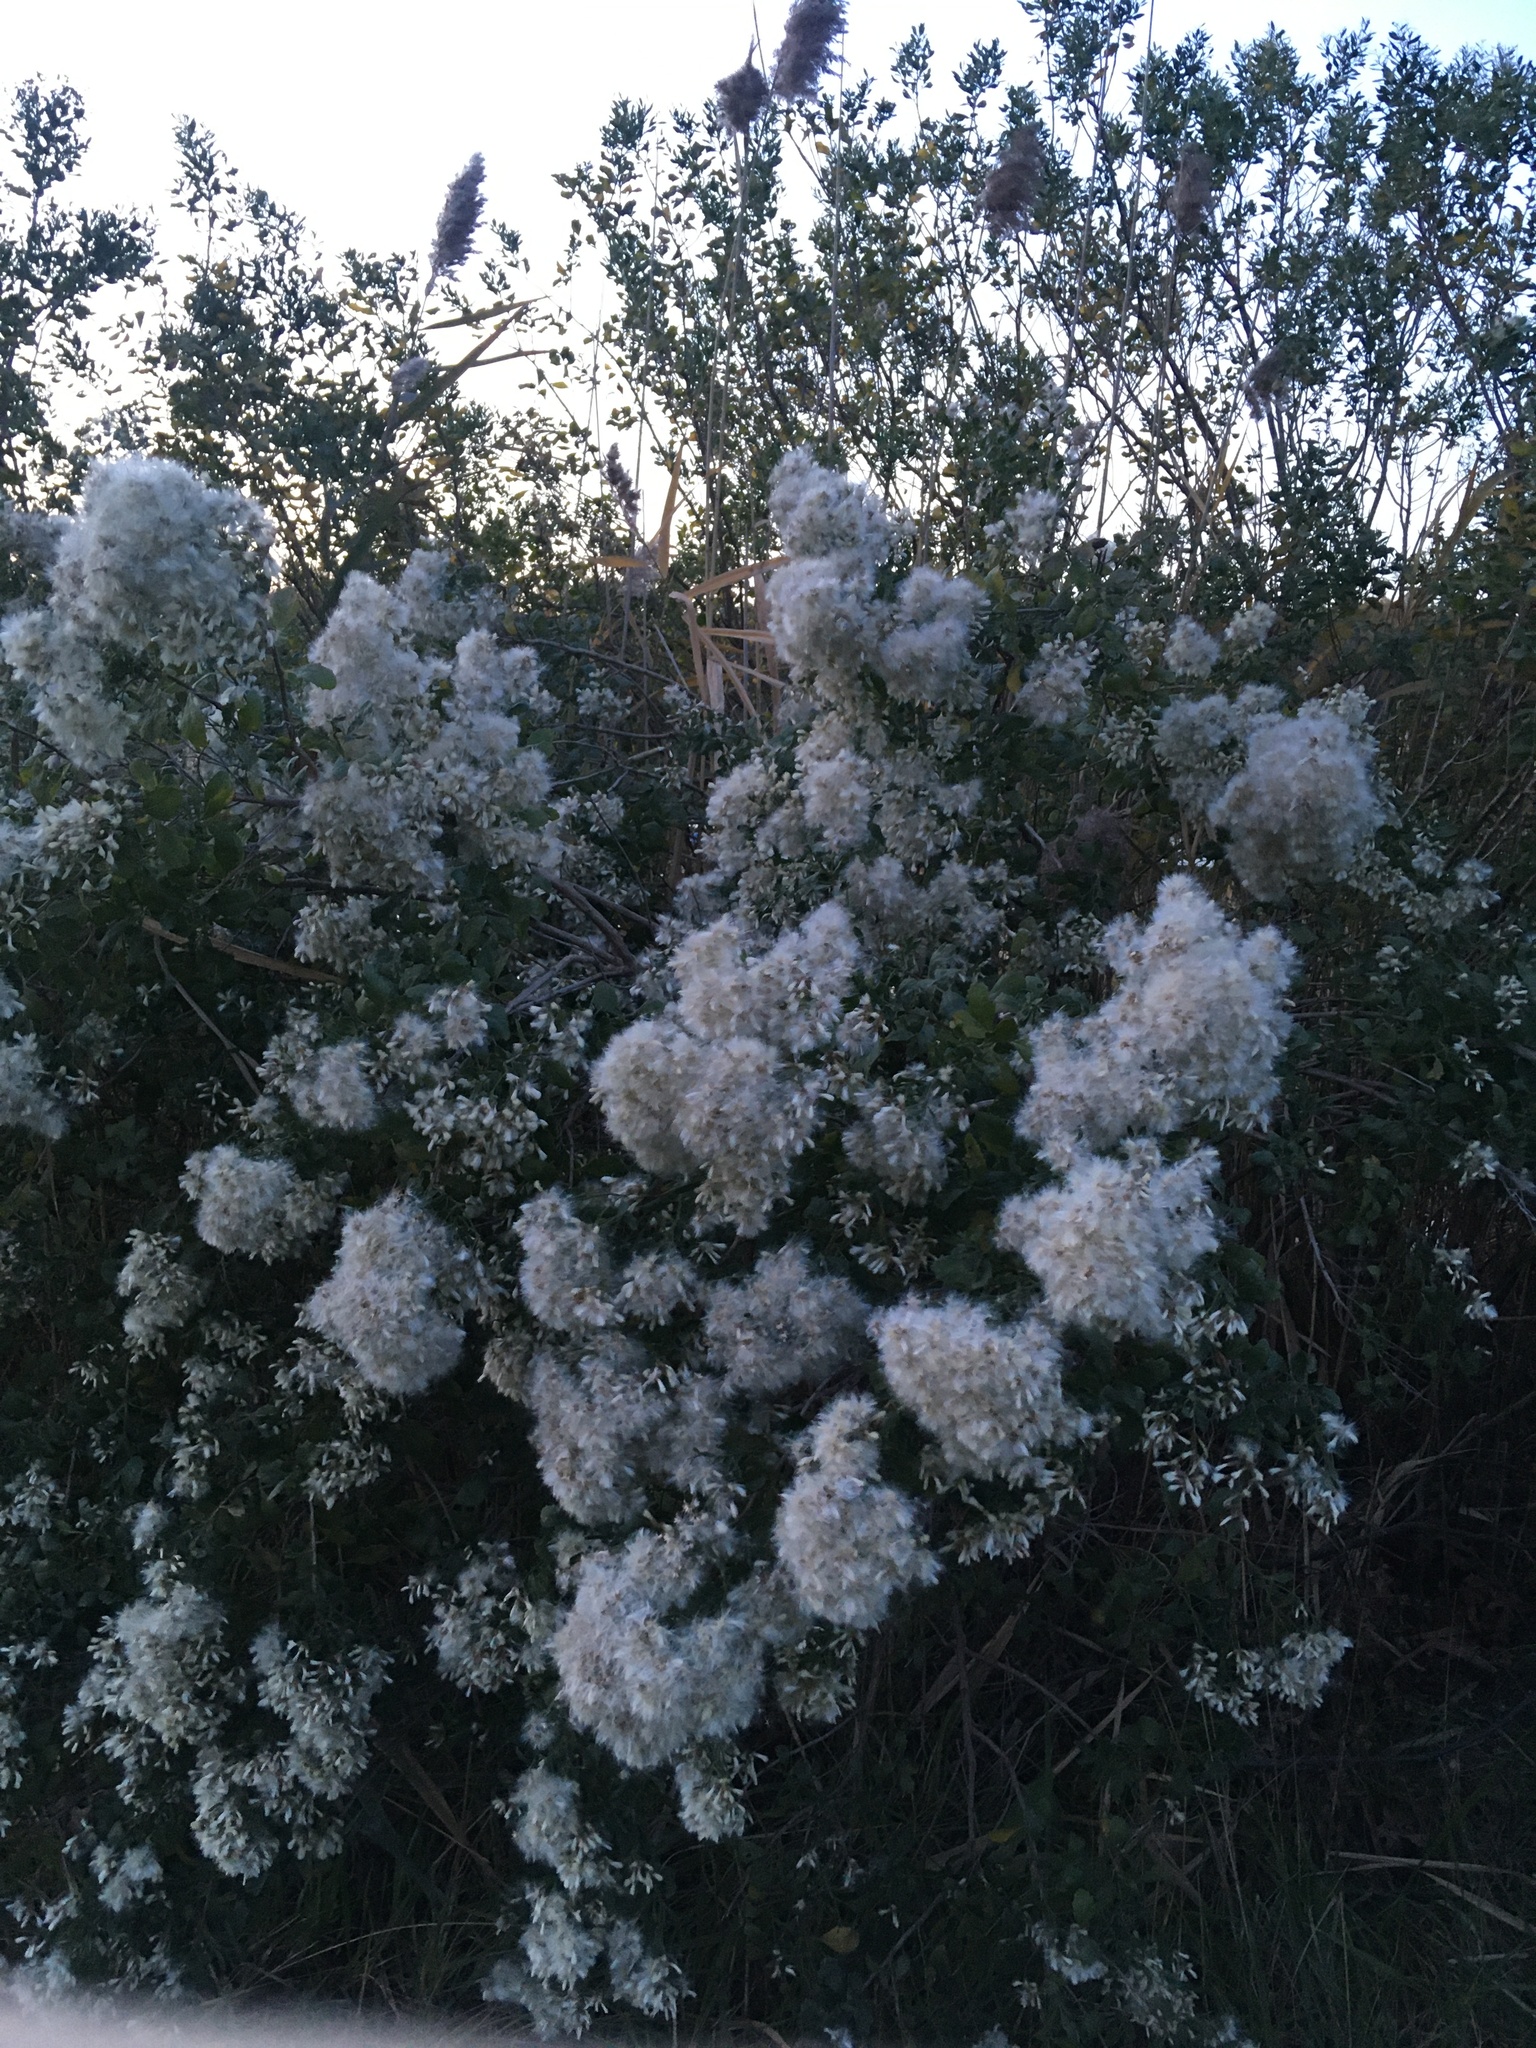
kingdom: Plantae
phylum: Tracheophyta
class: Magnoliopsida
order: Asterales
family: Asteraceae
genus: Baccharis
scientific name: Baccharis halimifolia
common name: Eastern baccharis
